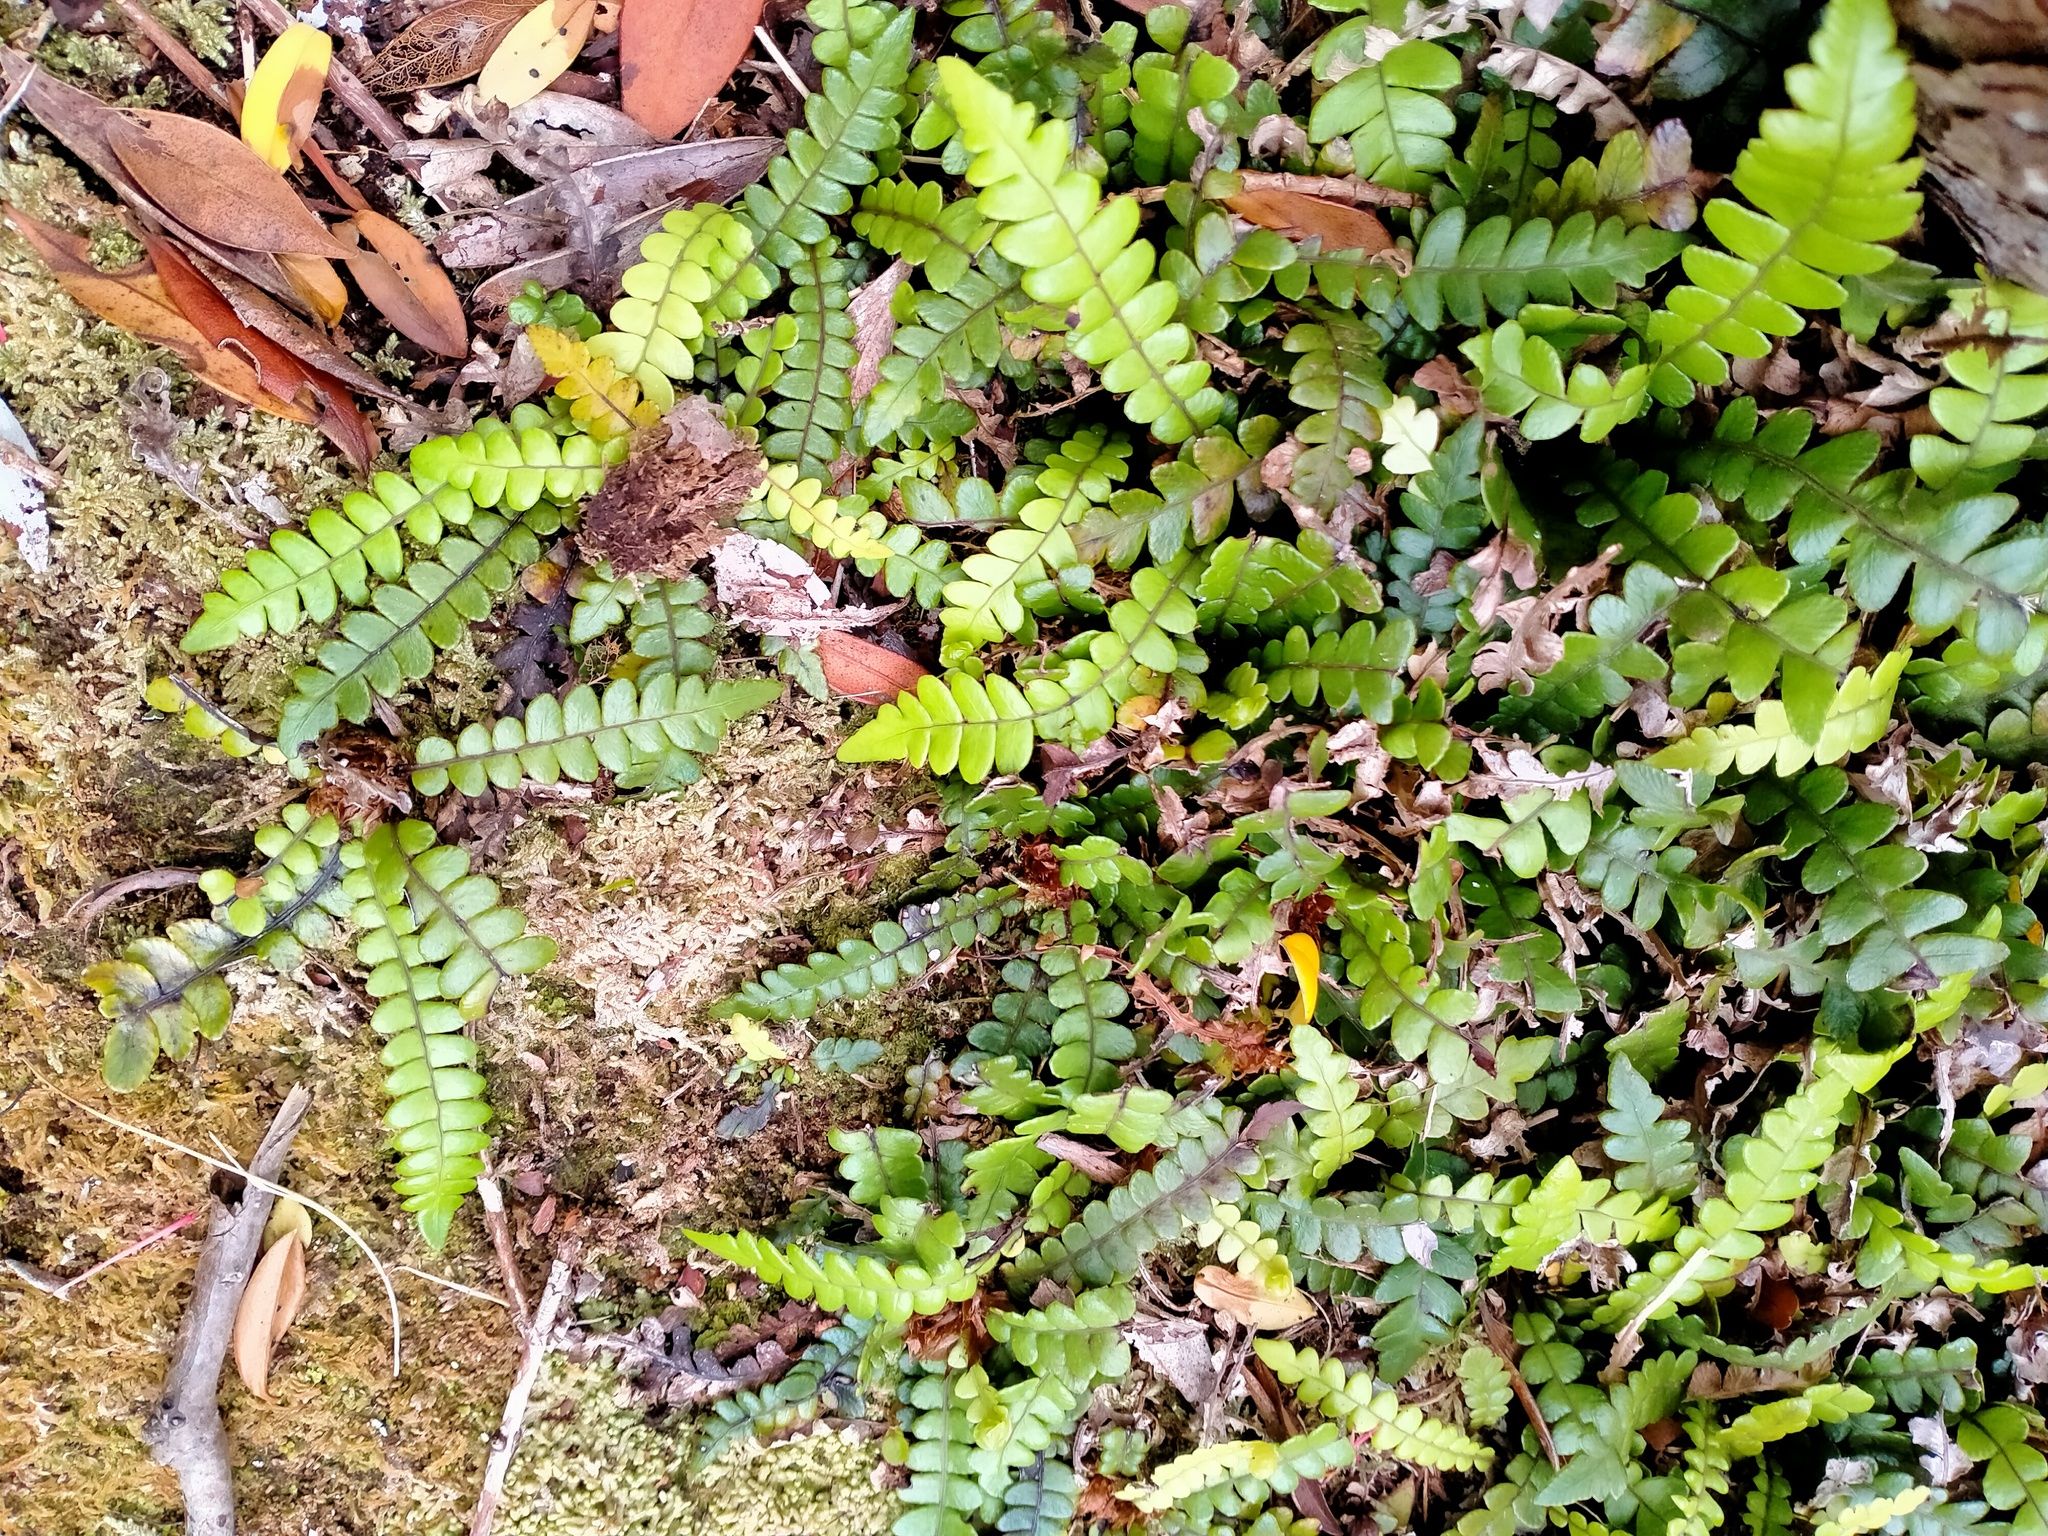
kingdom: Plantae
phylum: Tracheophyta
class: Polypodiopsida
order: Polypodiales
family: Blechnaceae
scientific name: Blechnaceae
